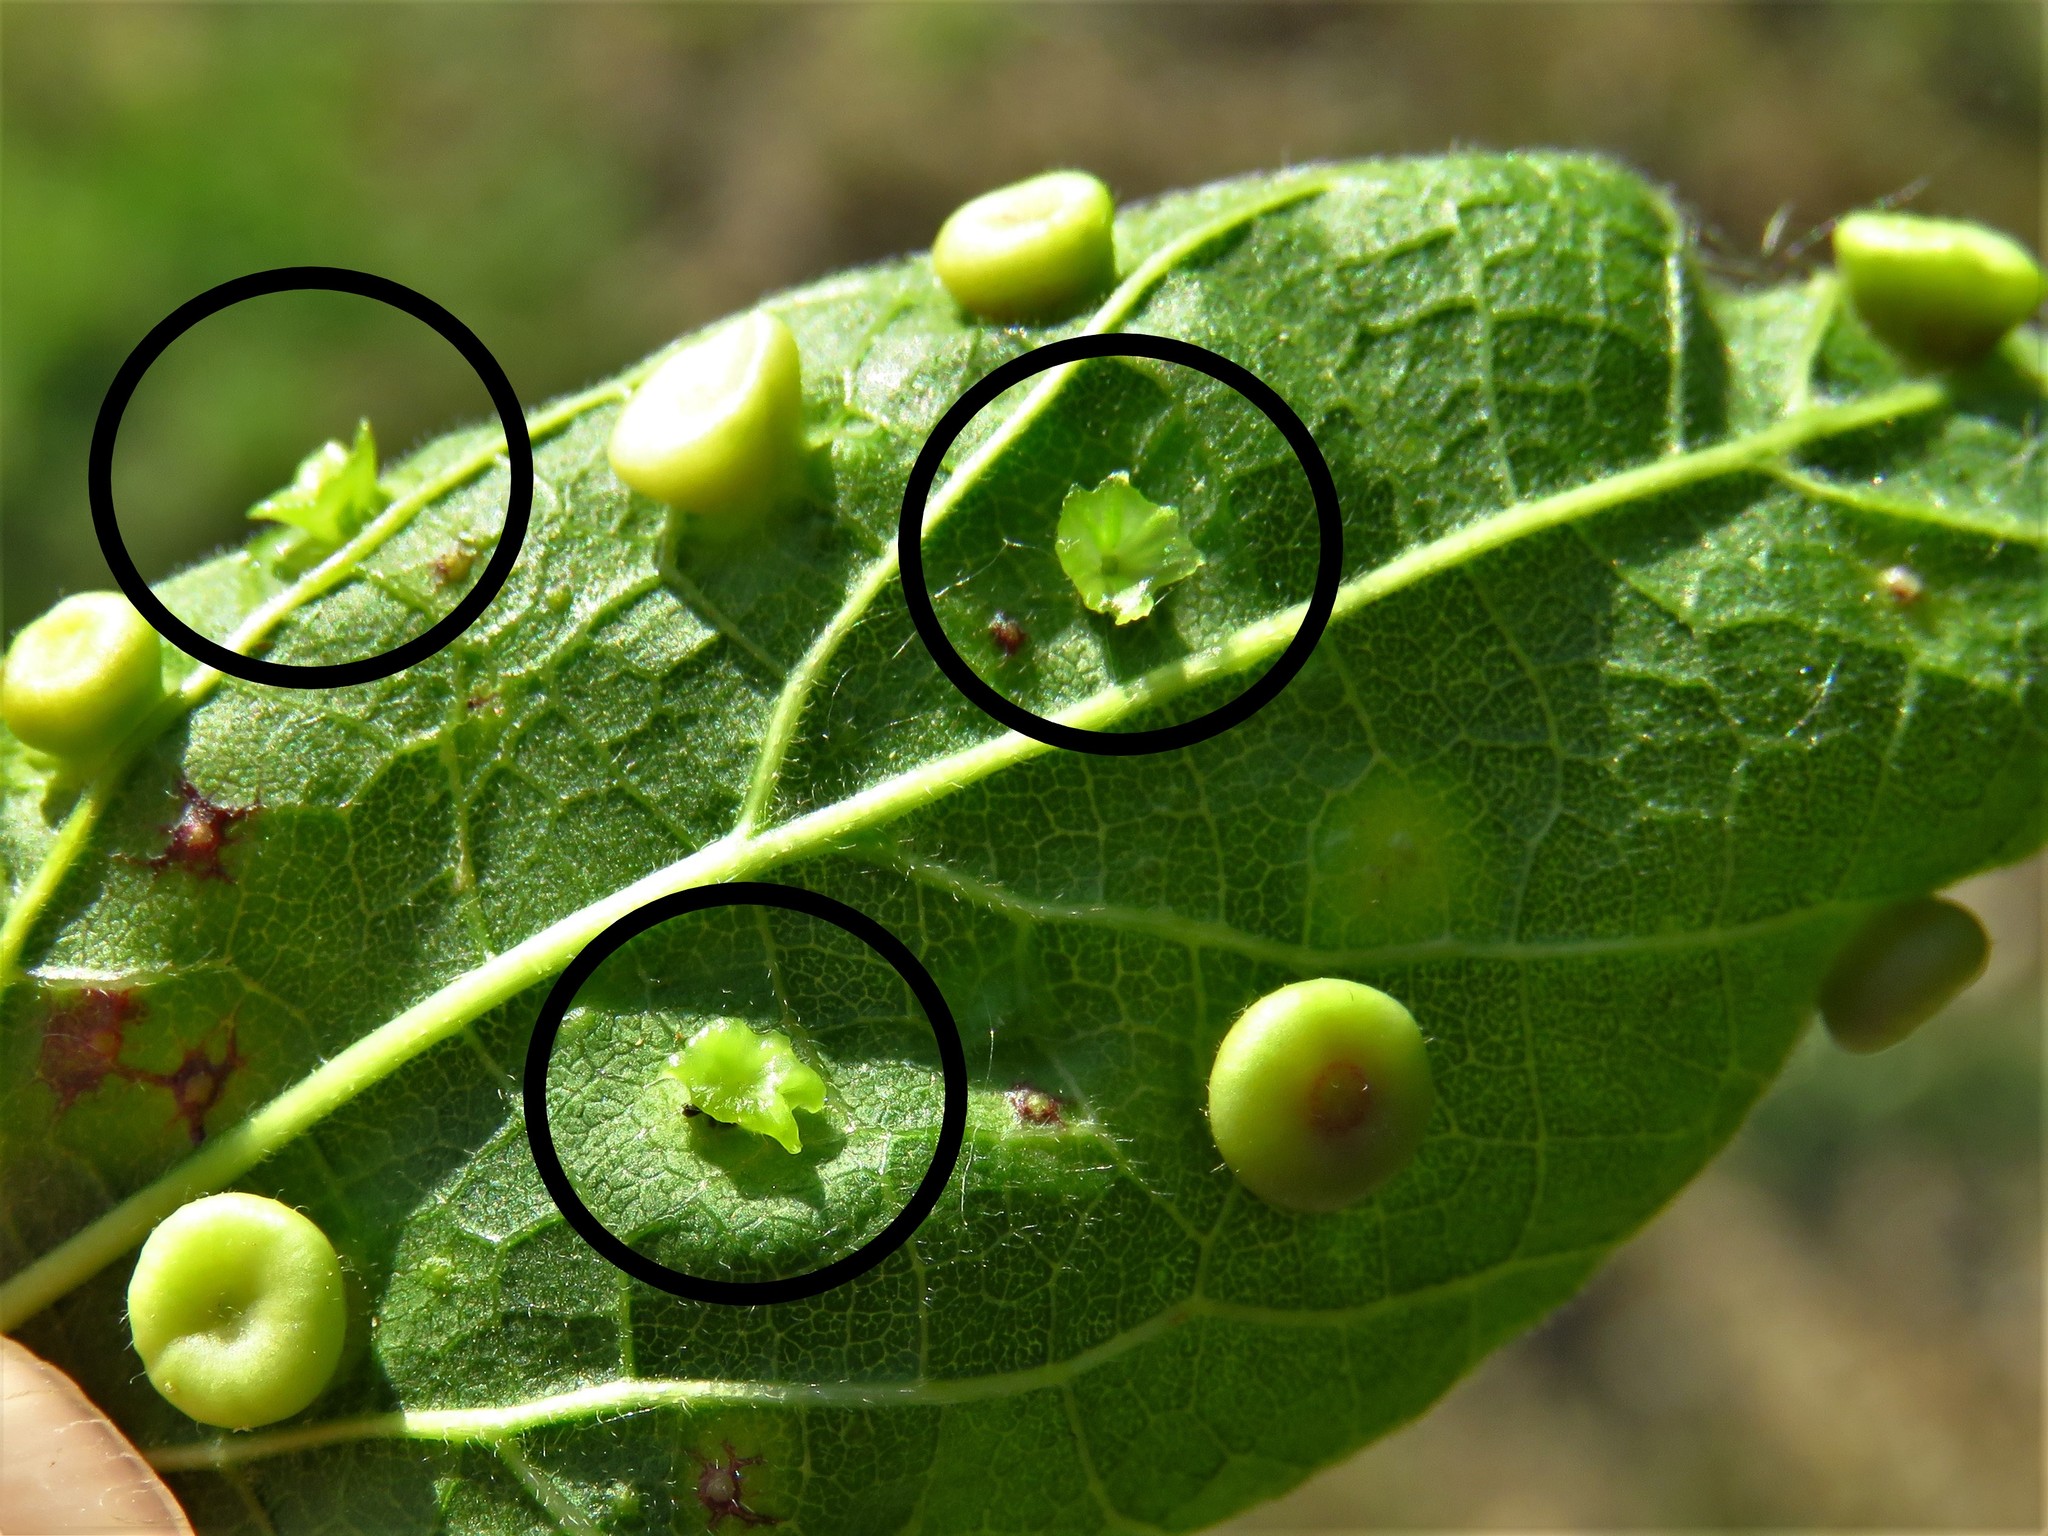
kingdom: Animalia
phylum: Arthropoda
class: Insecta
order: Hemiptera
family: Aphalaridae
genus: Pachypsylla
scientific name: Pachypsylla celtidisasterisca
